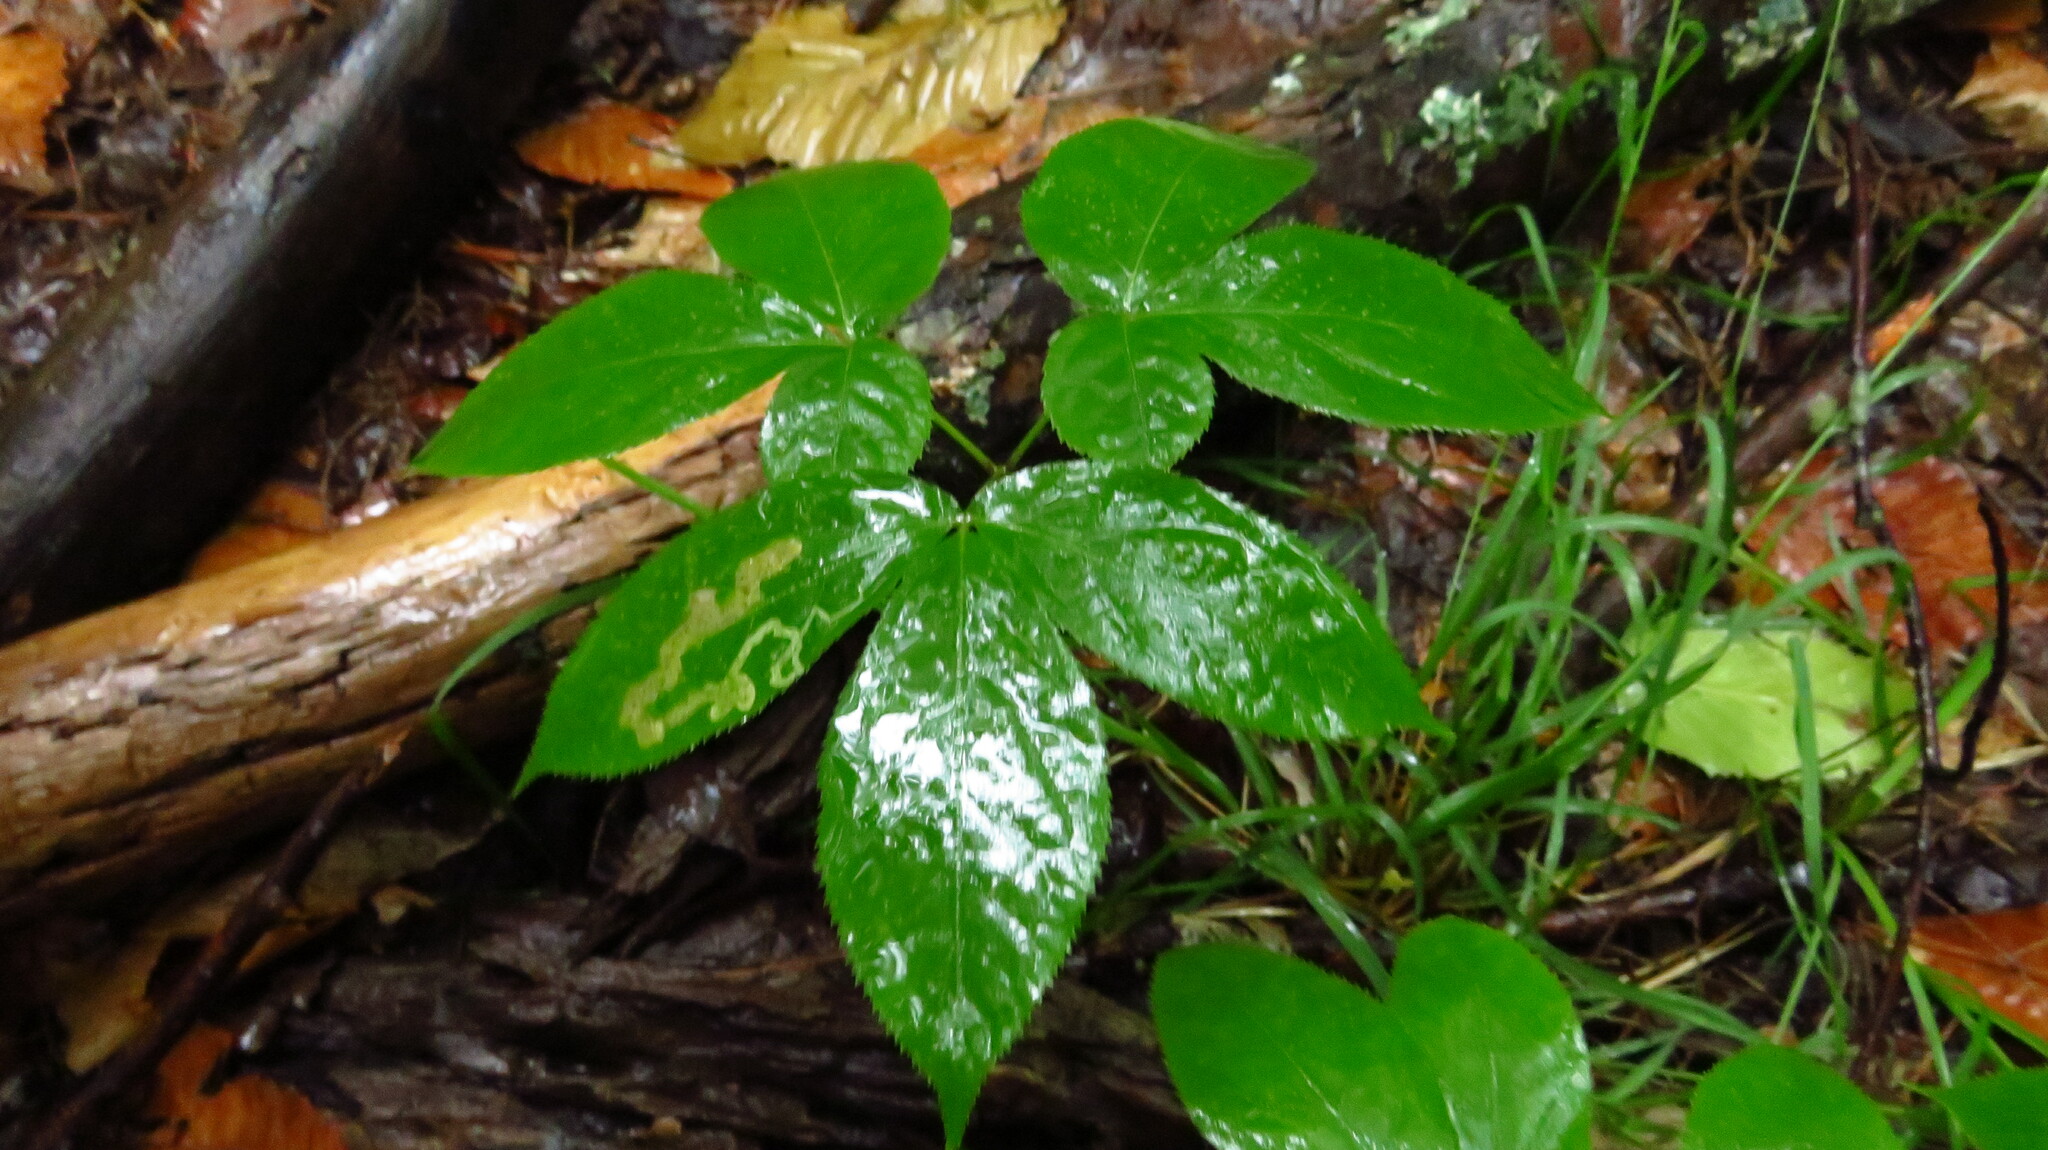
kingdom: Plantae
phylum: Tracheophyta
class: Magnoliopsida
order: Apiales
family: Araliaceae
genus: Aralia
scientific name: Aralia nudicaulis
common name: Wild sarsaparilla
